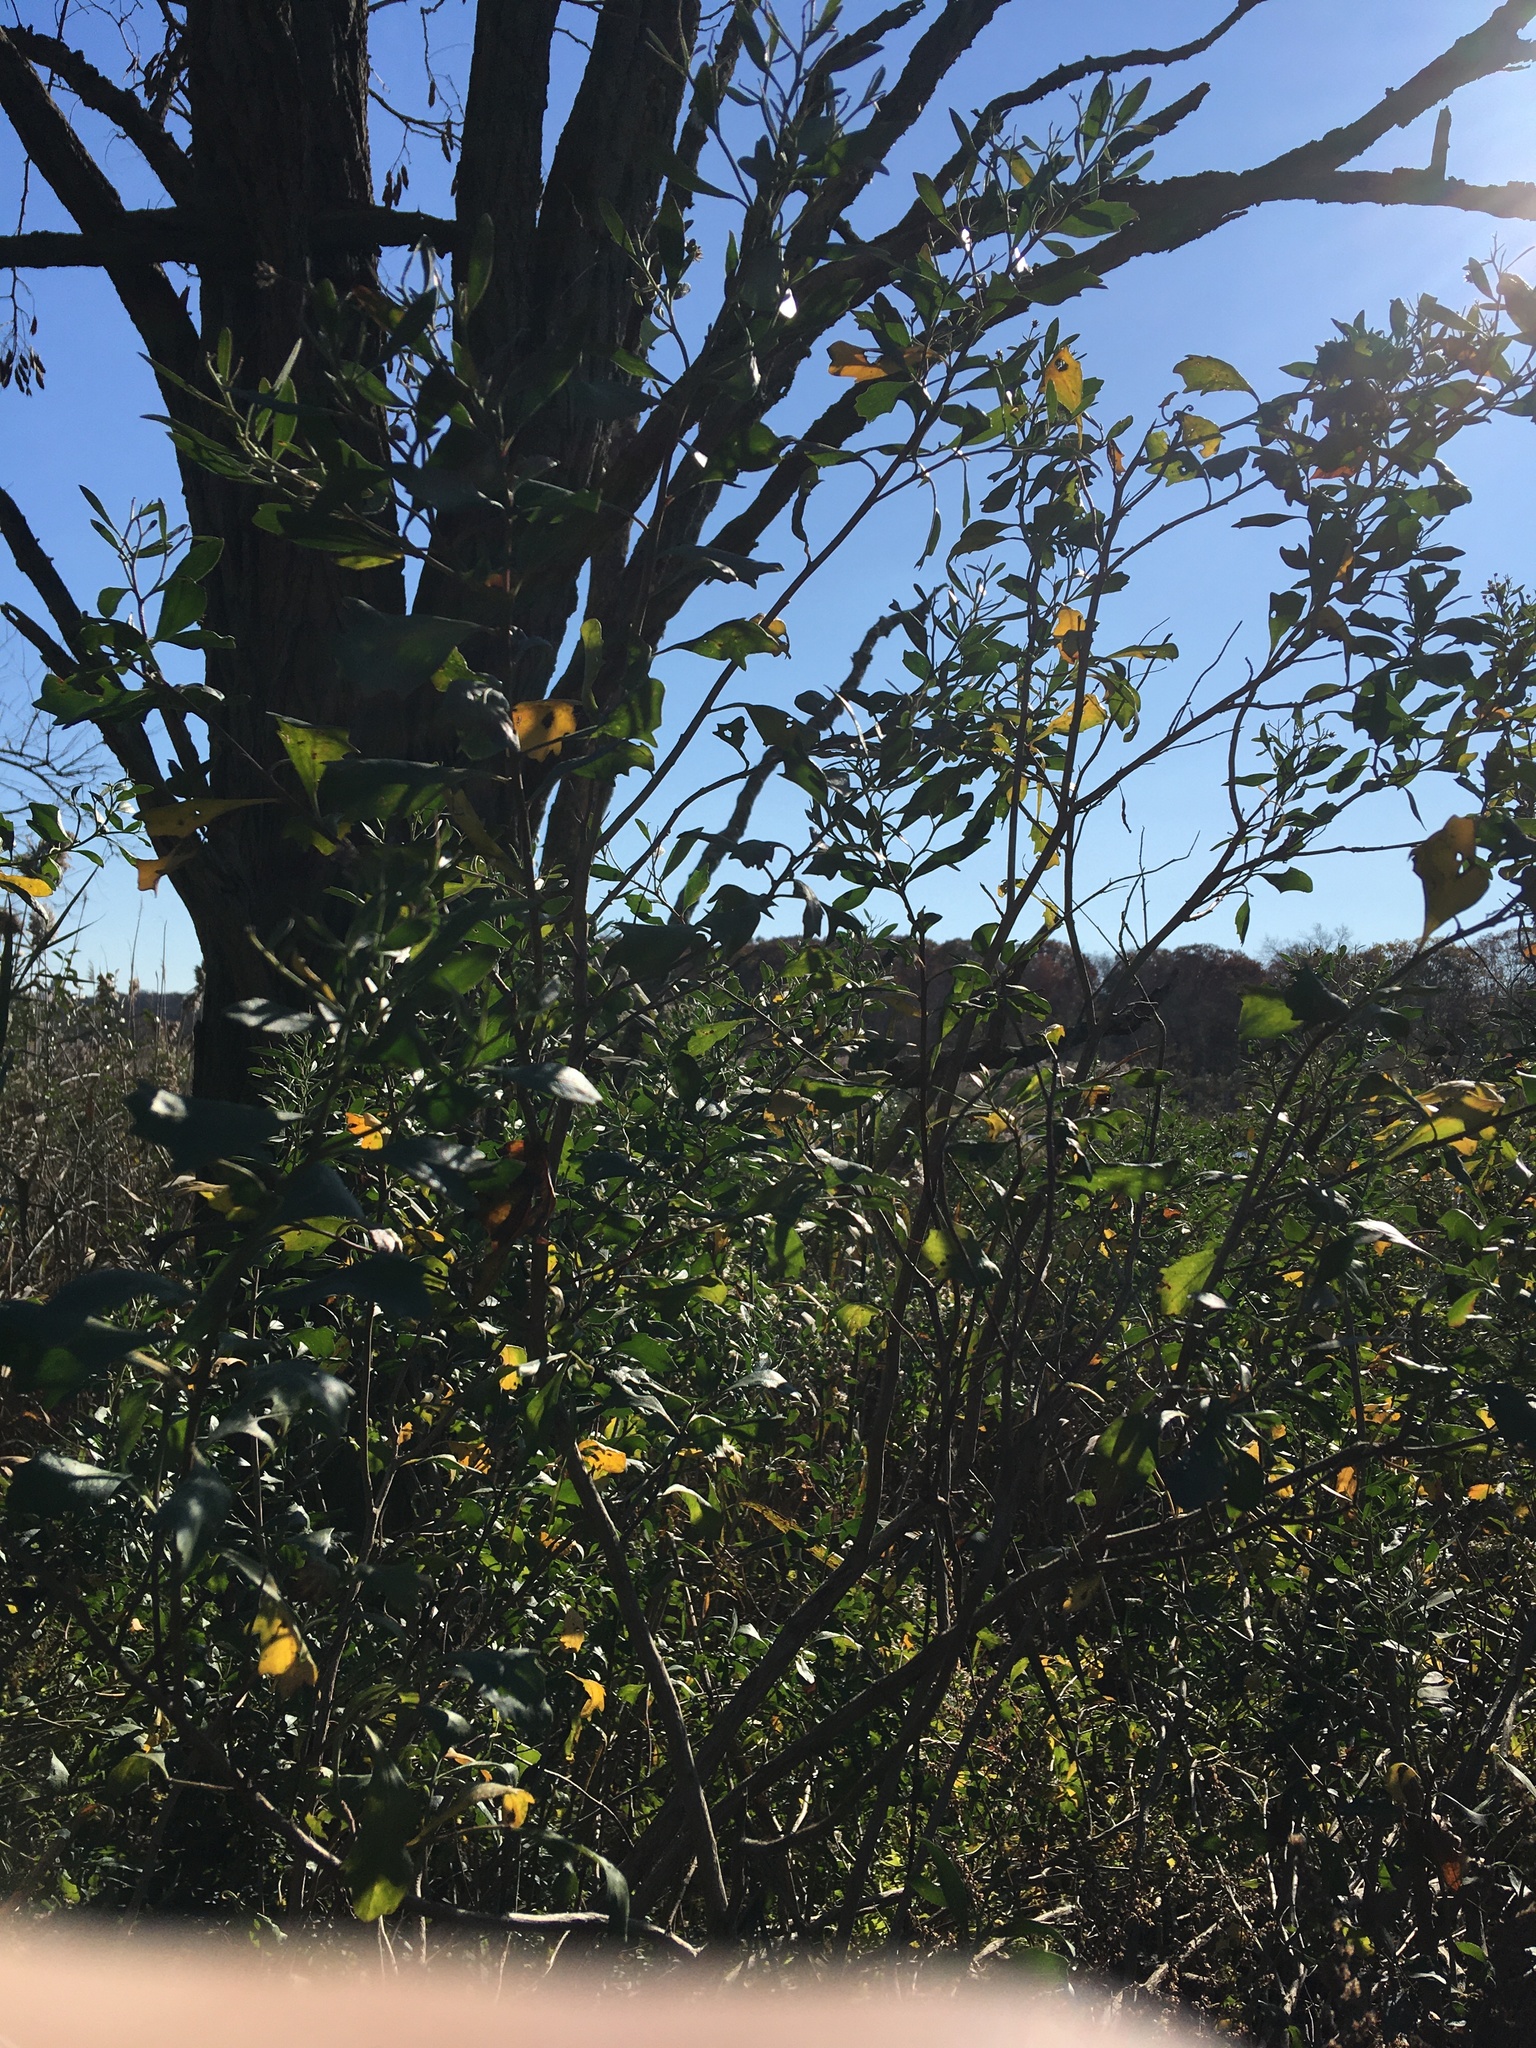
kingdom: Plantae
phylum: Tracheophyta
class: Magnoliopsida
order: Asterales
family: Asteraceae
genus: Baccharis
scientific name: Baccharis halimifolia
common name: Eastern baccharis
